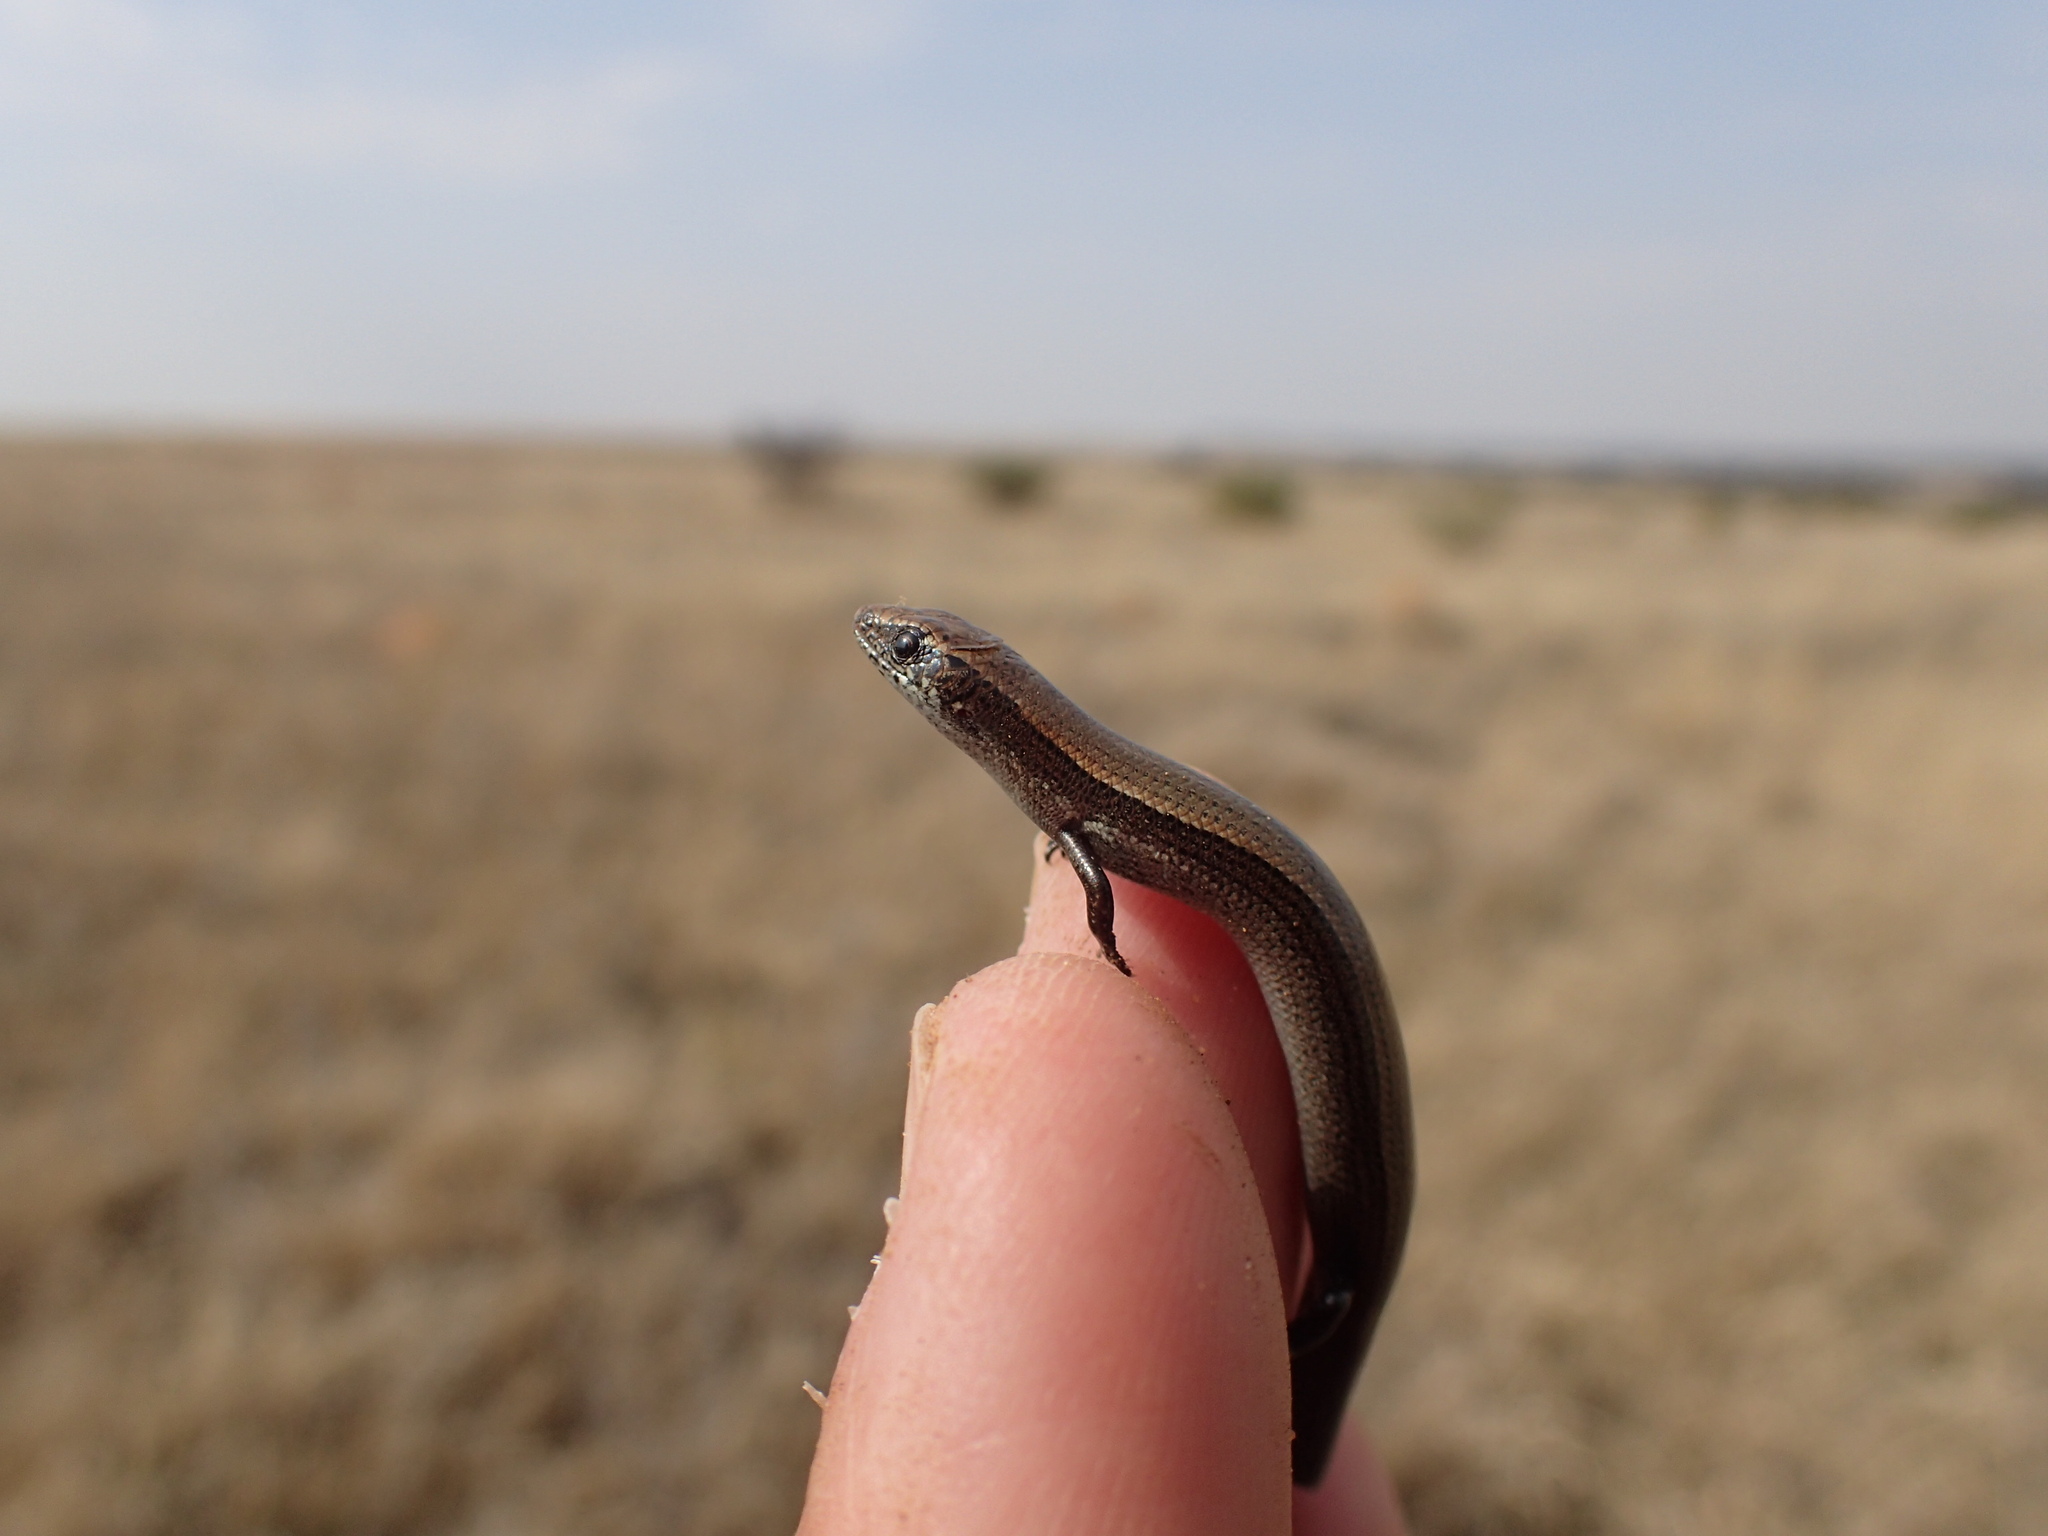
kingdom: Animalia
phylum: Chordata
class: Squamata
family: Scincidae
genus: Panaspis
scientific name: Panaspis wahlbergii
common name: Angolan snake-eyed skink
